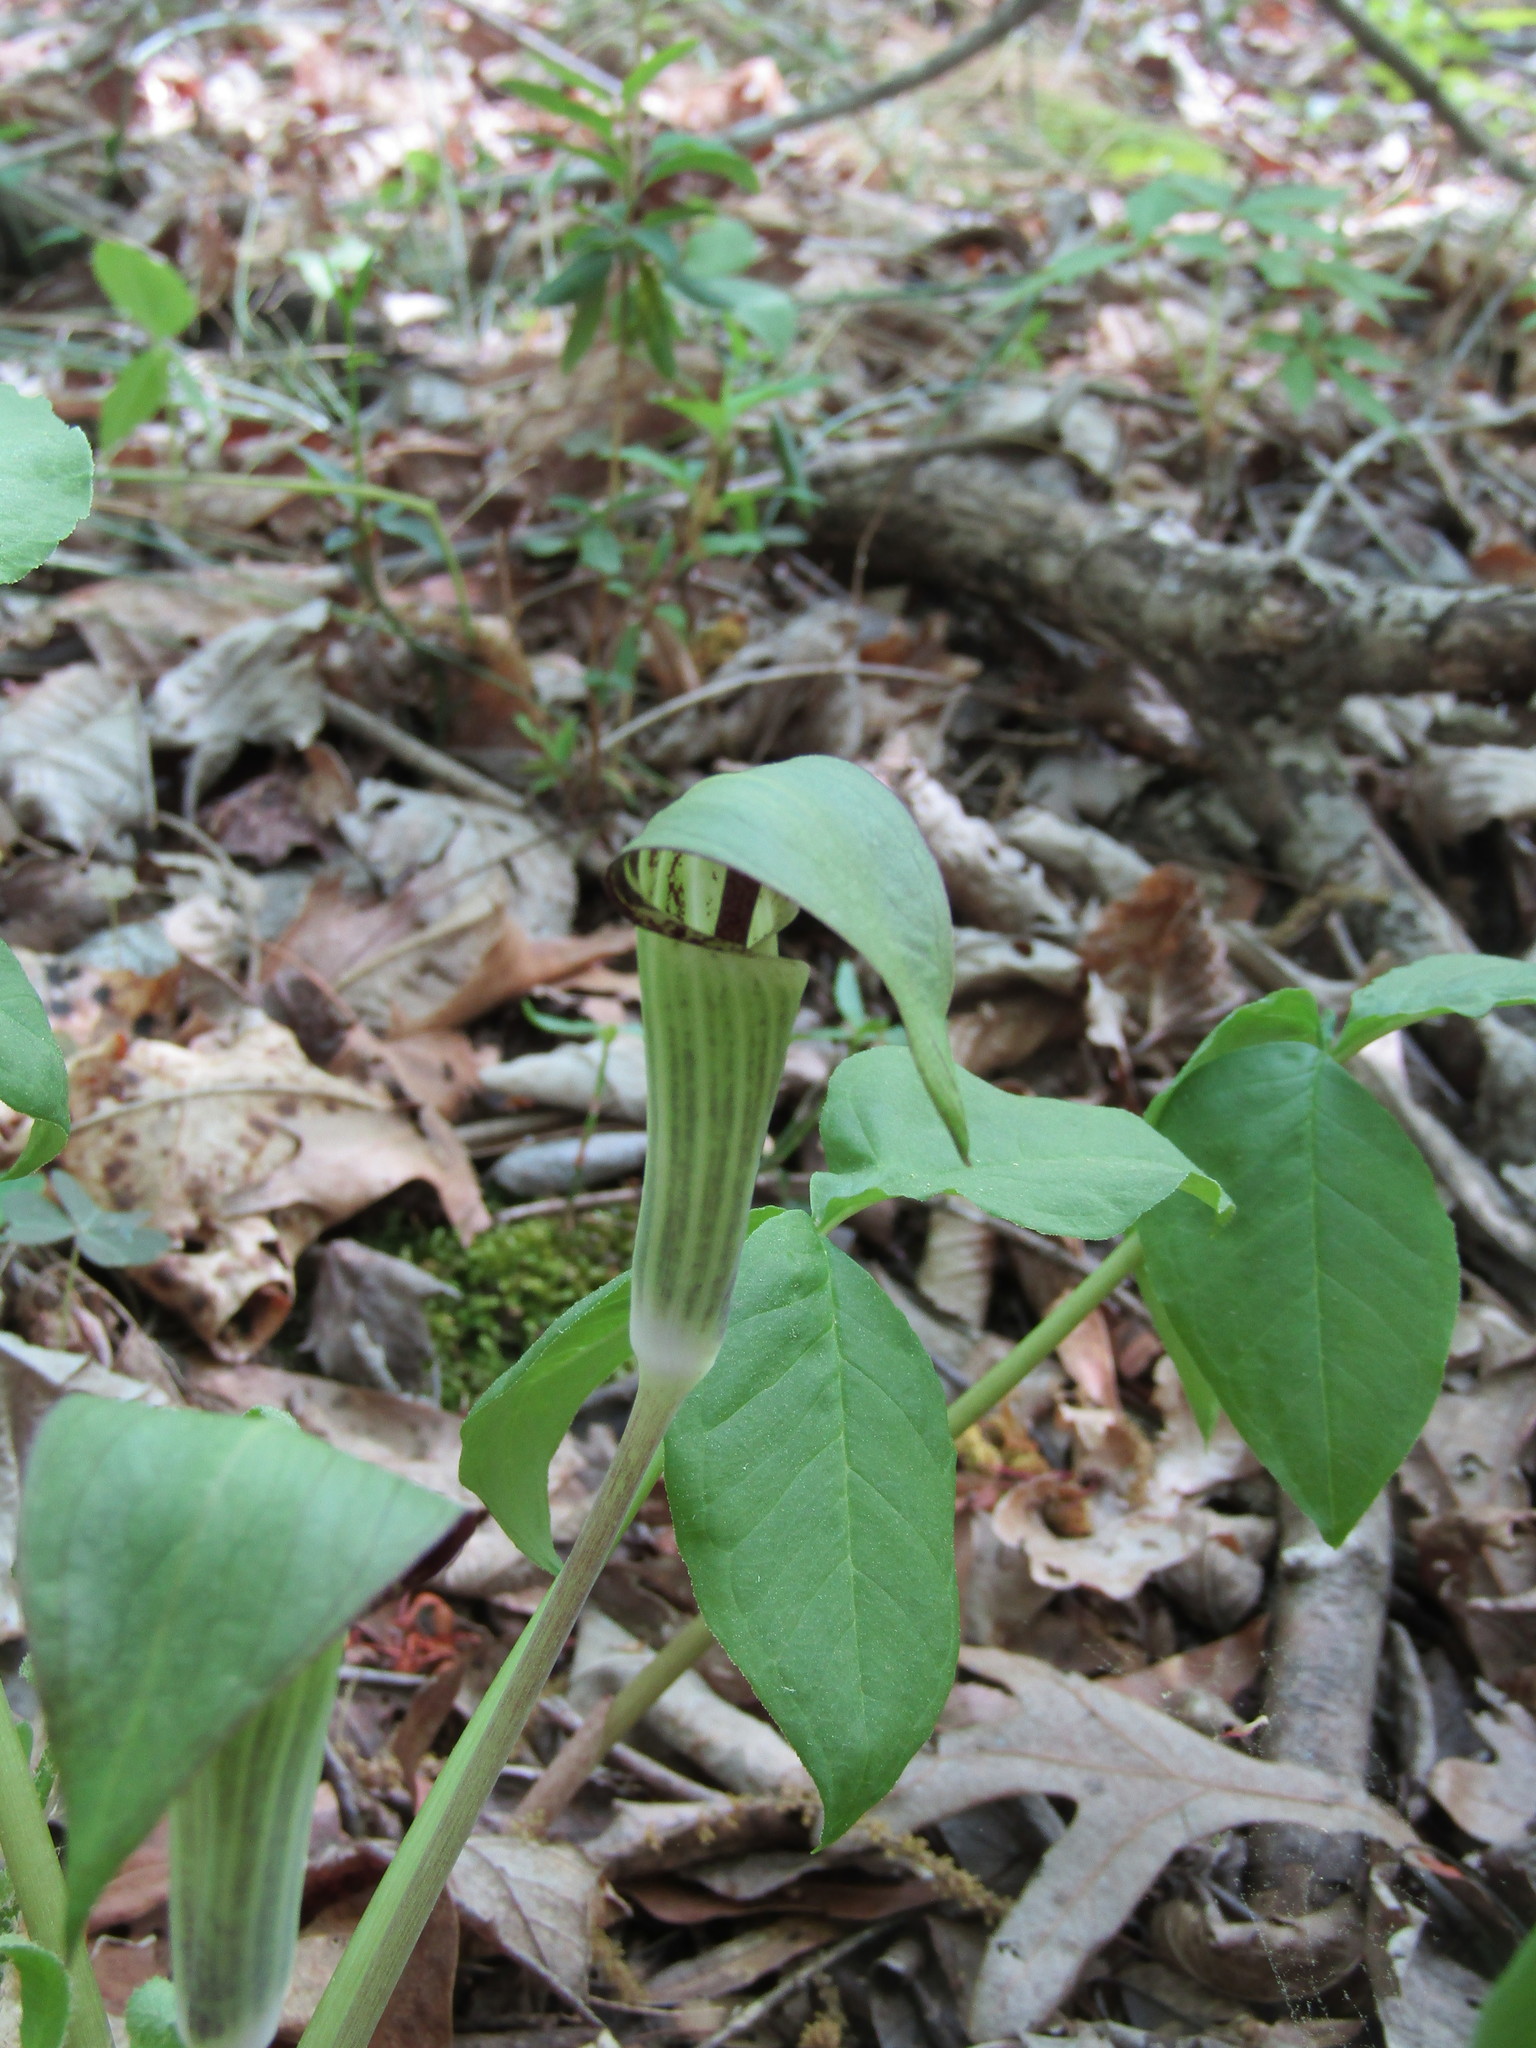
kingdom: Plantae
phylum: Tracheophyta
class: Liliopsida
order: Alismatales
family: Araceae
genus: Arisaema
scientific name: Arisaema triphyllum
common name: Jack-in-the-pulpit
